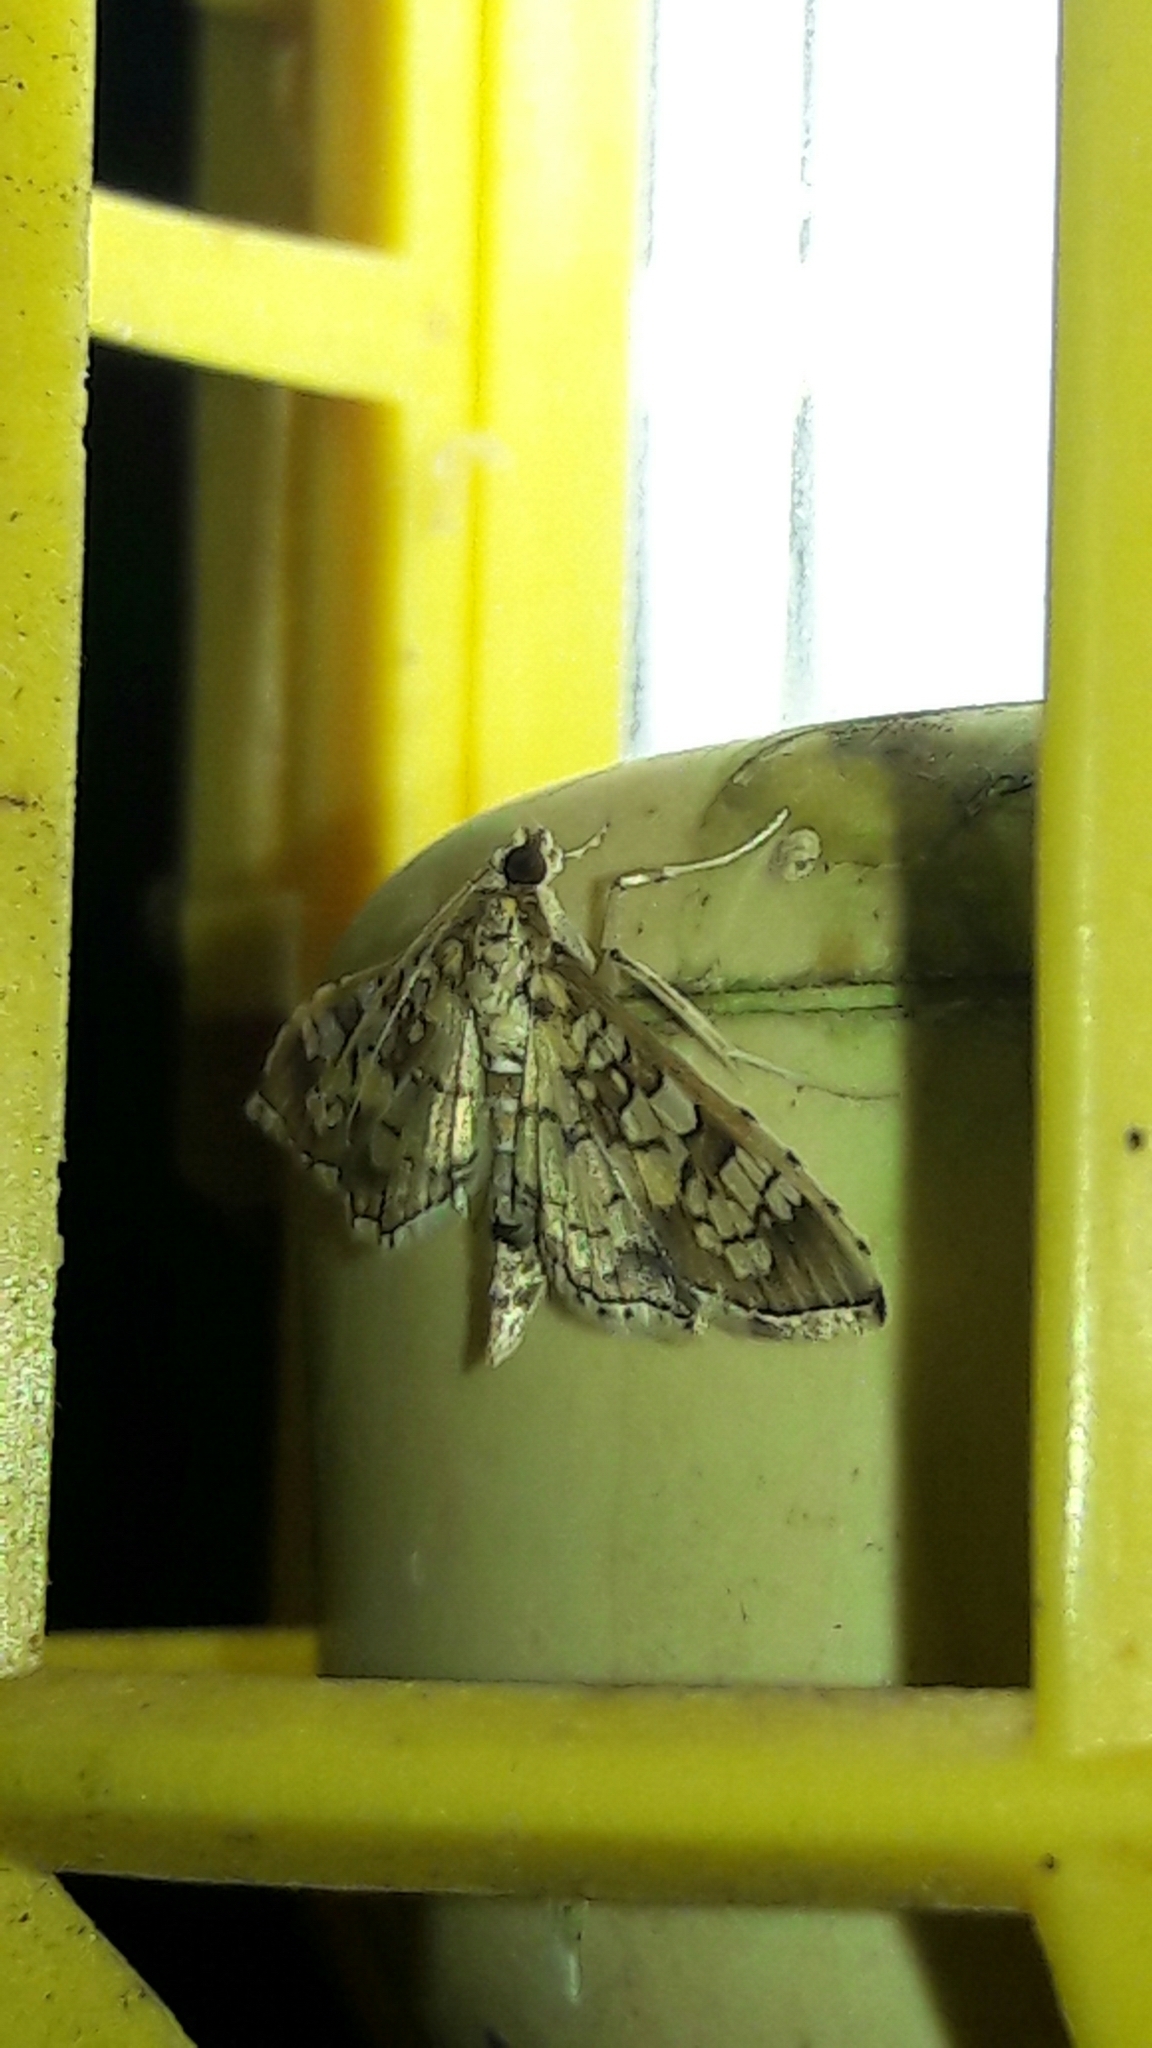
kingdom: Animalia
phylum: Arthropoda
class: Insecta
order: Lepidoptera
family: Crambidae
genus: Samea
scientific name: Samea ecclesialis
